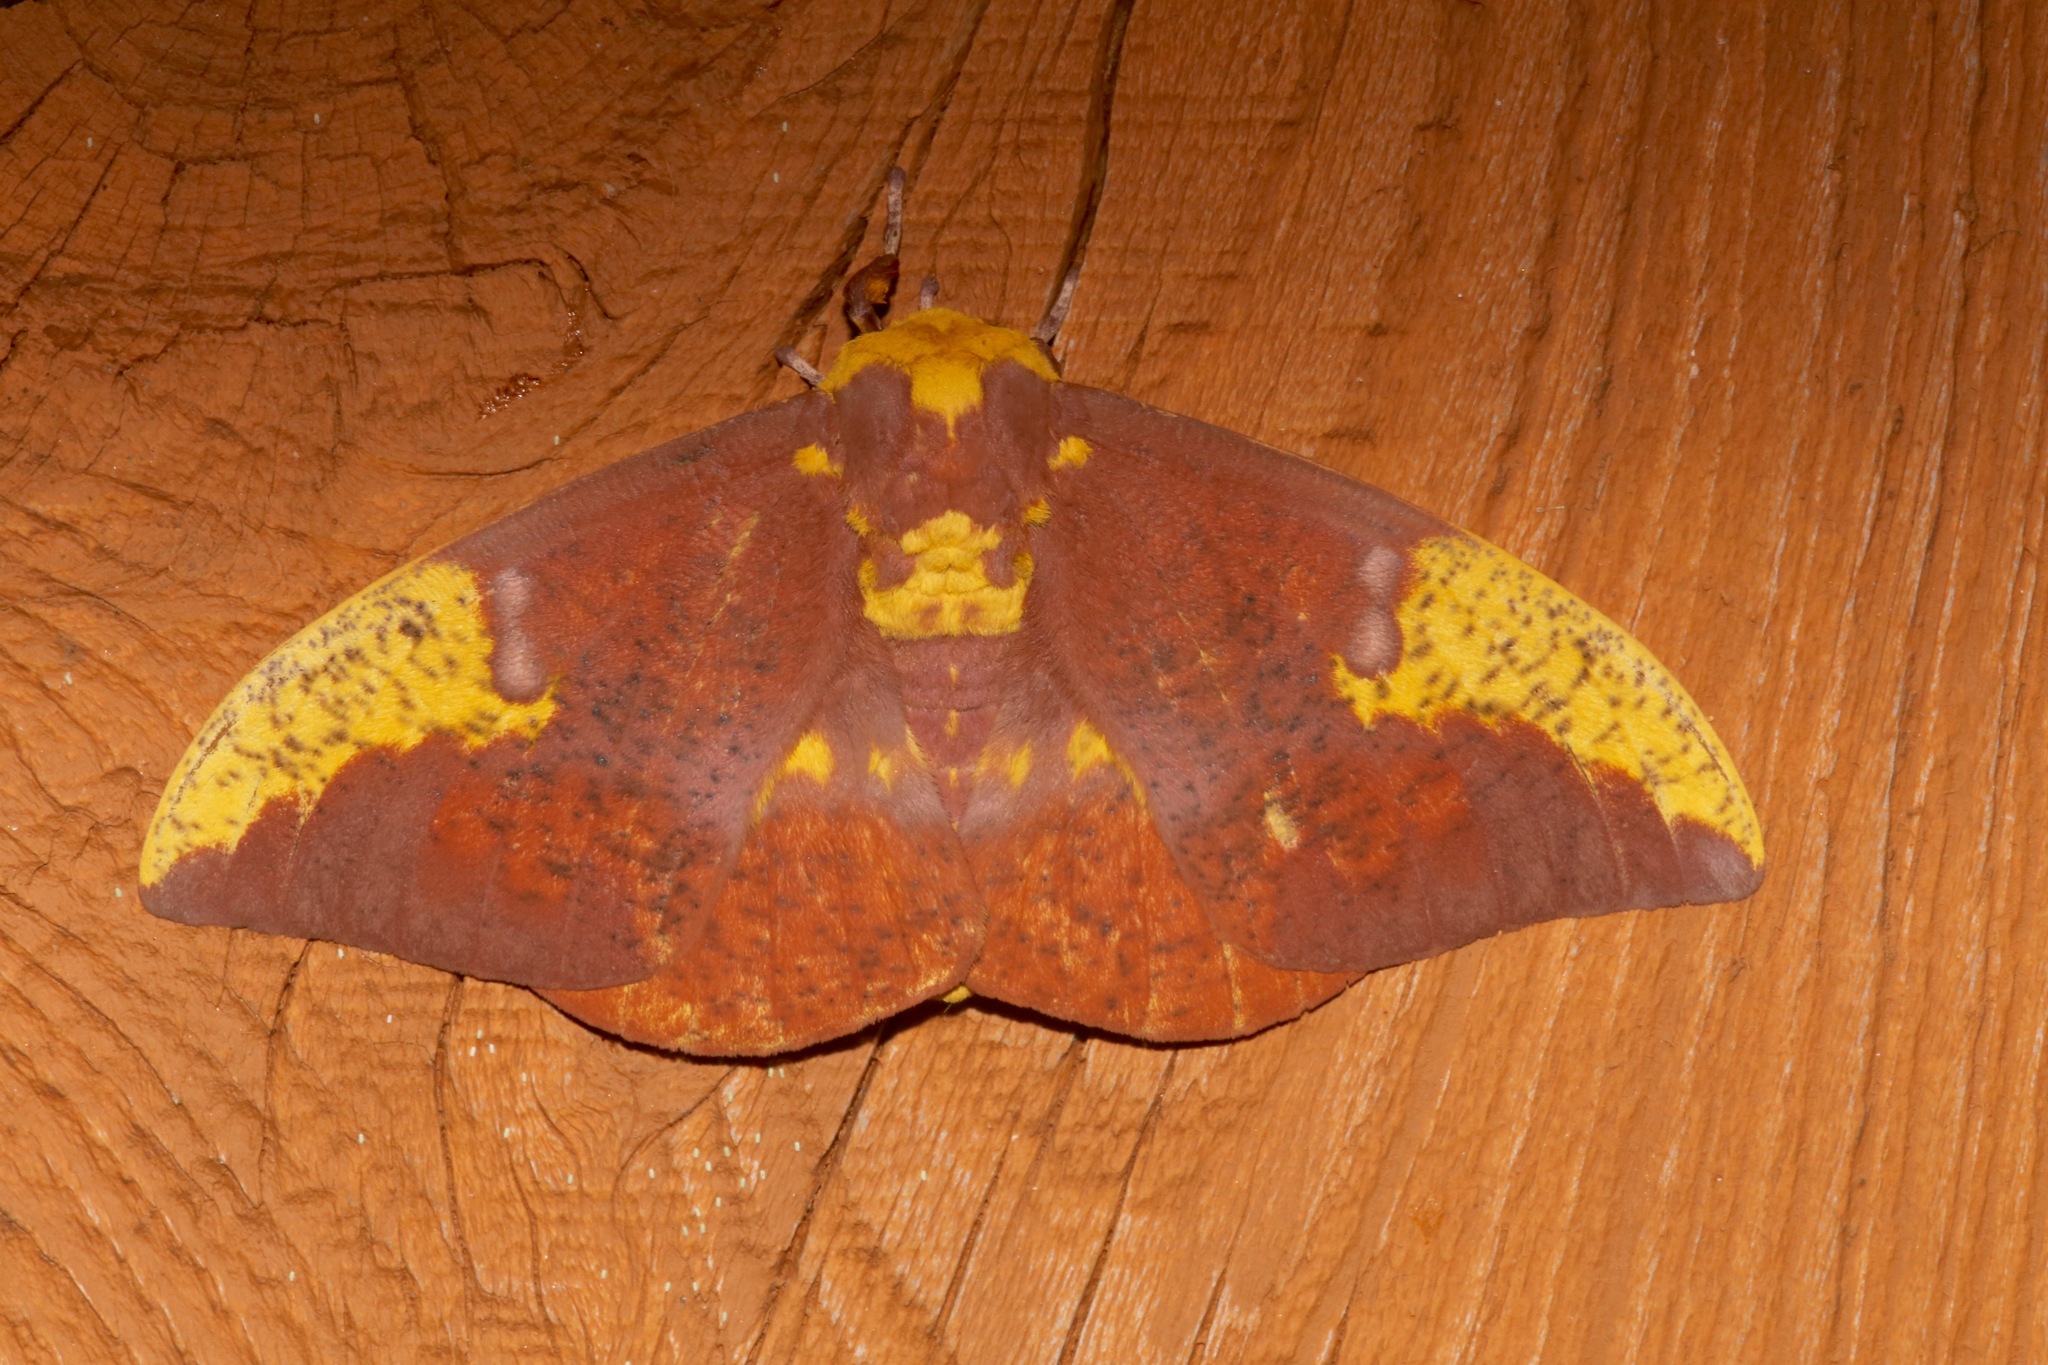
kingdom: Animalia
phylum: Arthropoda
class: Insecta
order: Lepidoptera
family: Saturniidae
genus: Eacles
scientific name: Eacles imperialis
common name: Imperial moth
